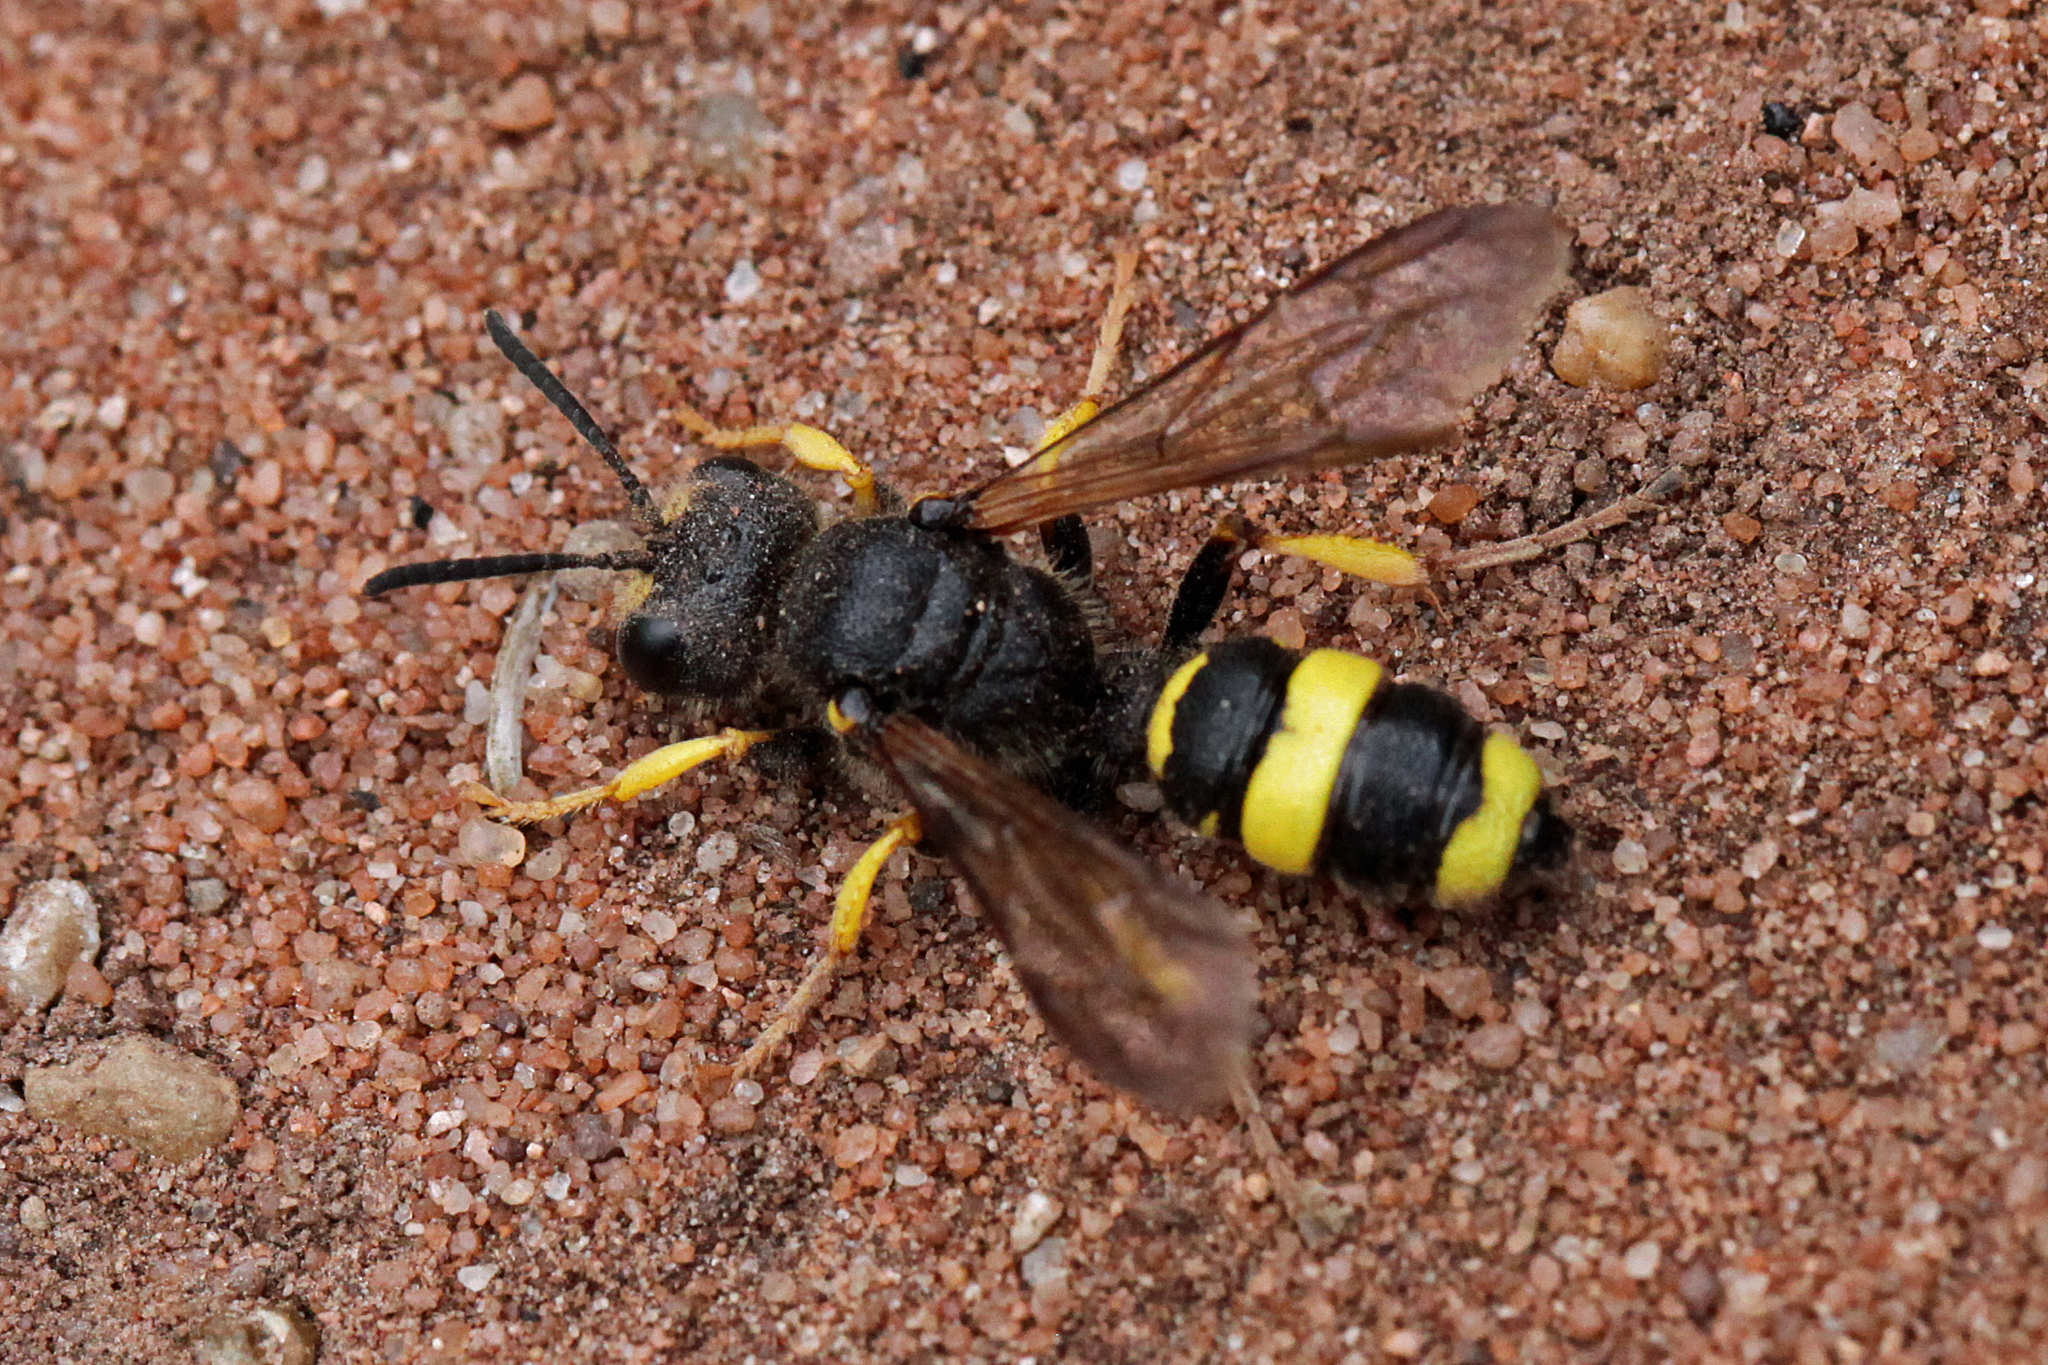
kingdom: Animalia
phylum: Arthropoda
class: Insecta
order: Hymenoptera
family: Crabronidae
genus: Cerceris
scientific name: Cerceris rybyensis
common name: Ornate tailed digger wasp
